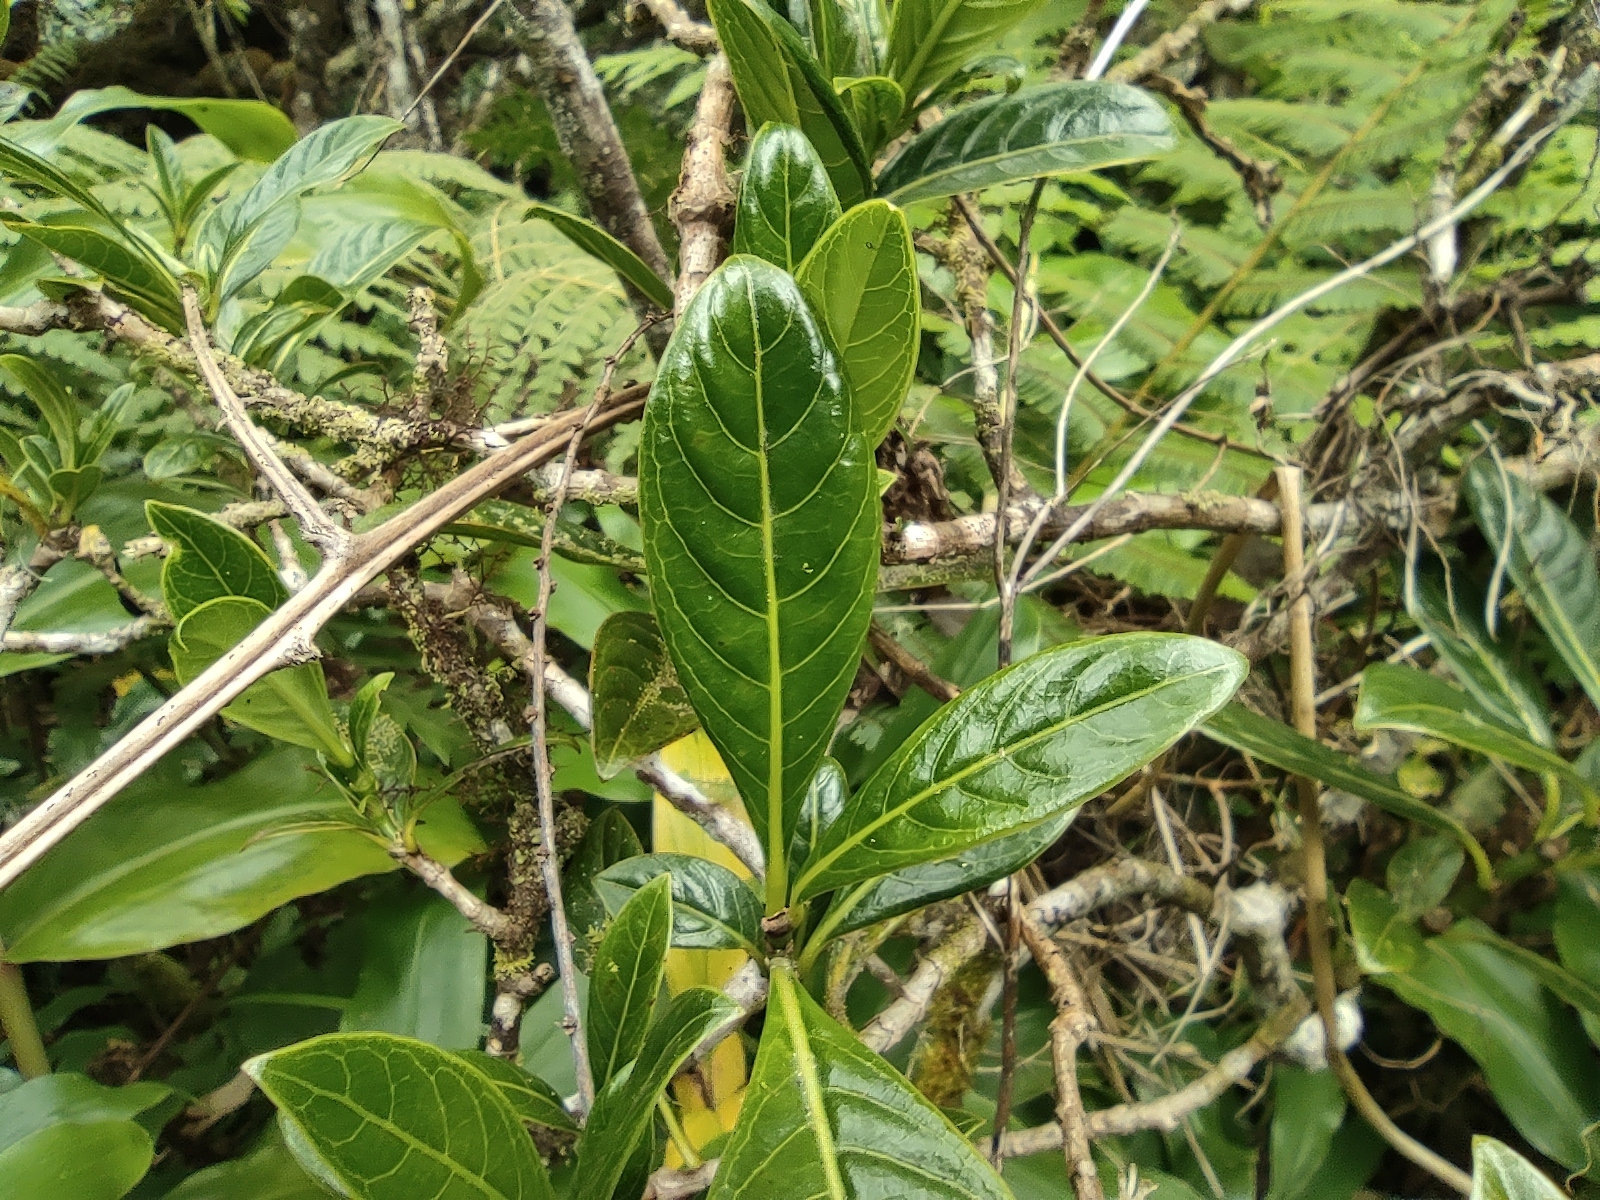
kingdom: Plantae
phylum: Tracheophyta
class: Magnoliopsida
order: Gentianales
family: Rubiaceae
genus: Chassalia
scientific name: Chassalia gaertneroides
